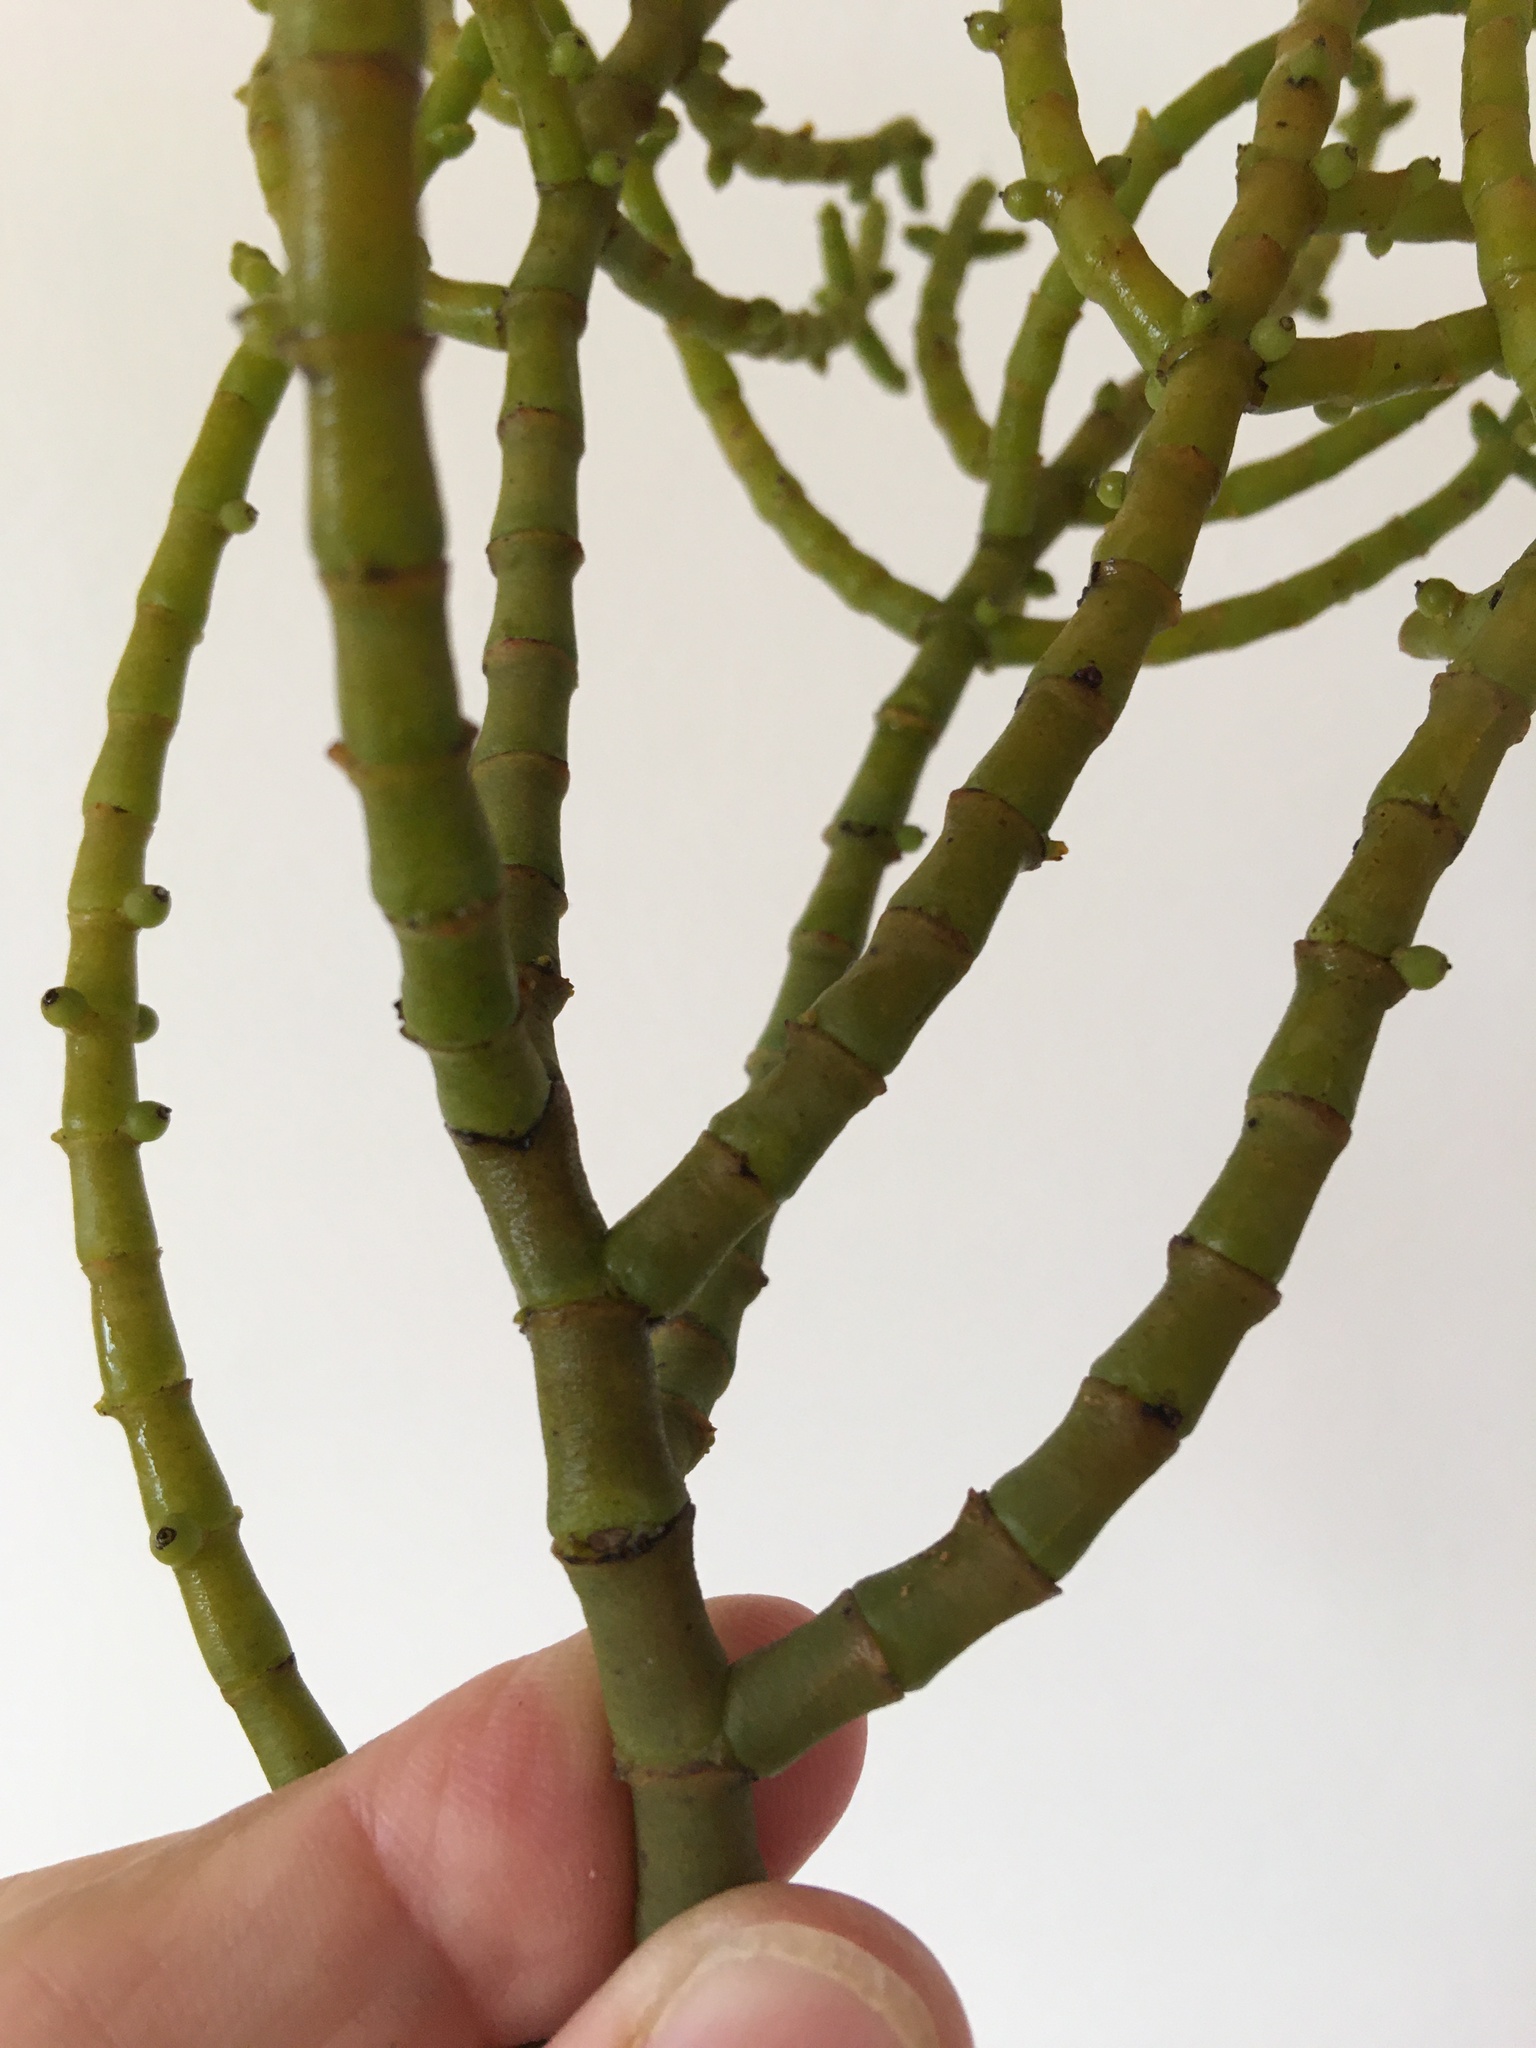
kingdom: Plantae
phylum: Tracheophyta
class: Magnoliopsida
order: Santalales
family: Viscaceae
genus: Viscum
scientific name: Viscum capense
